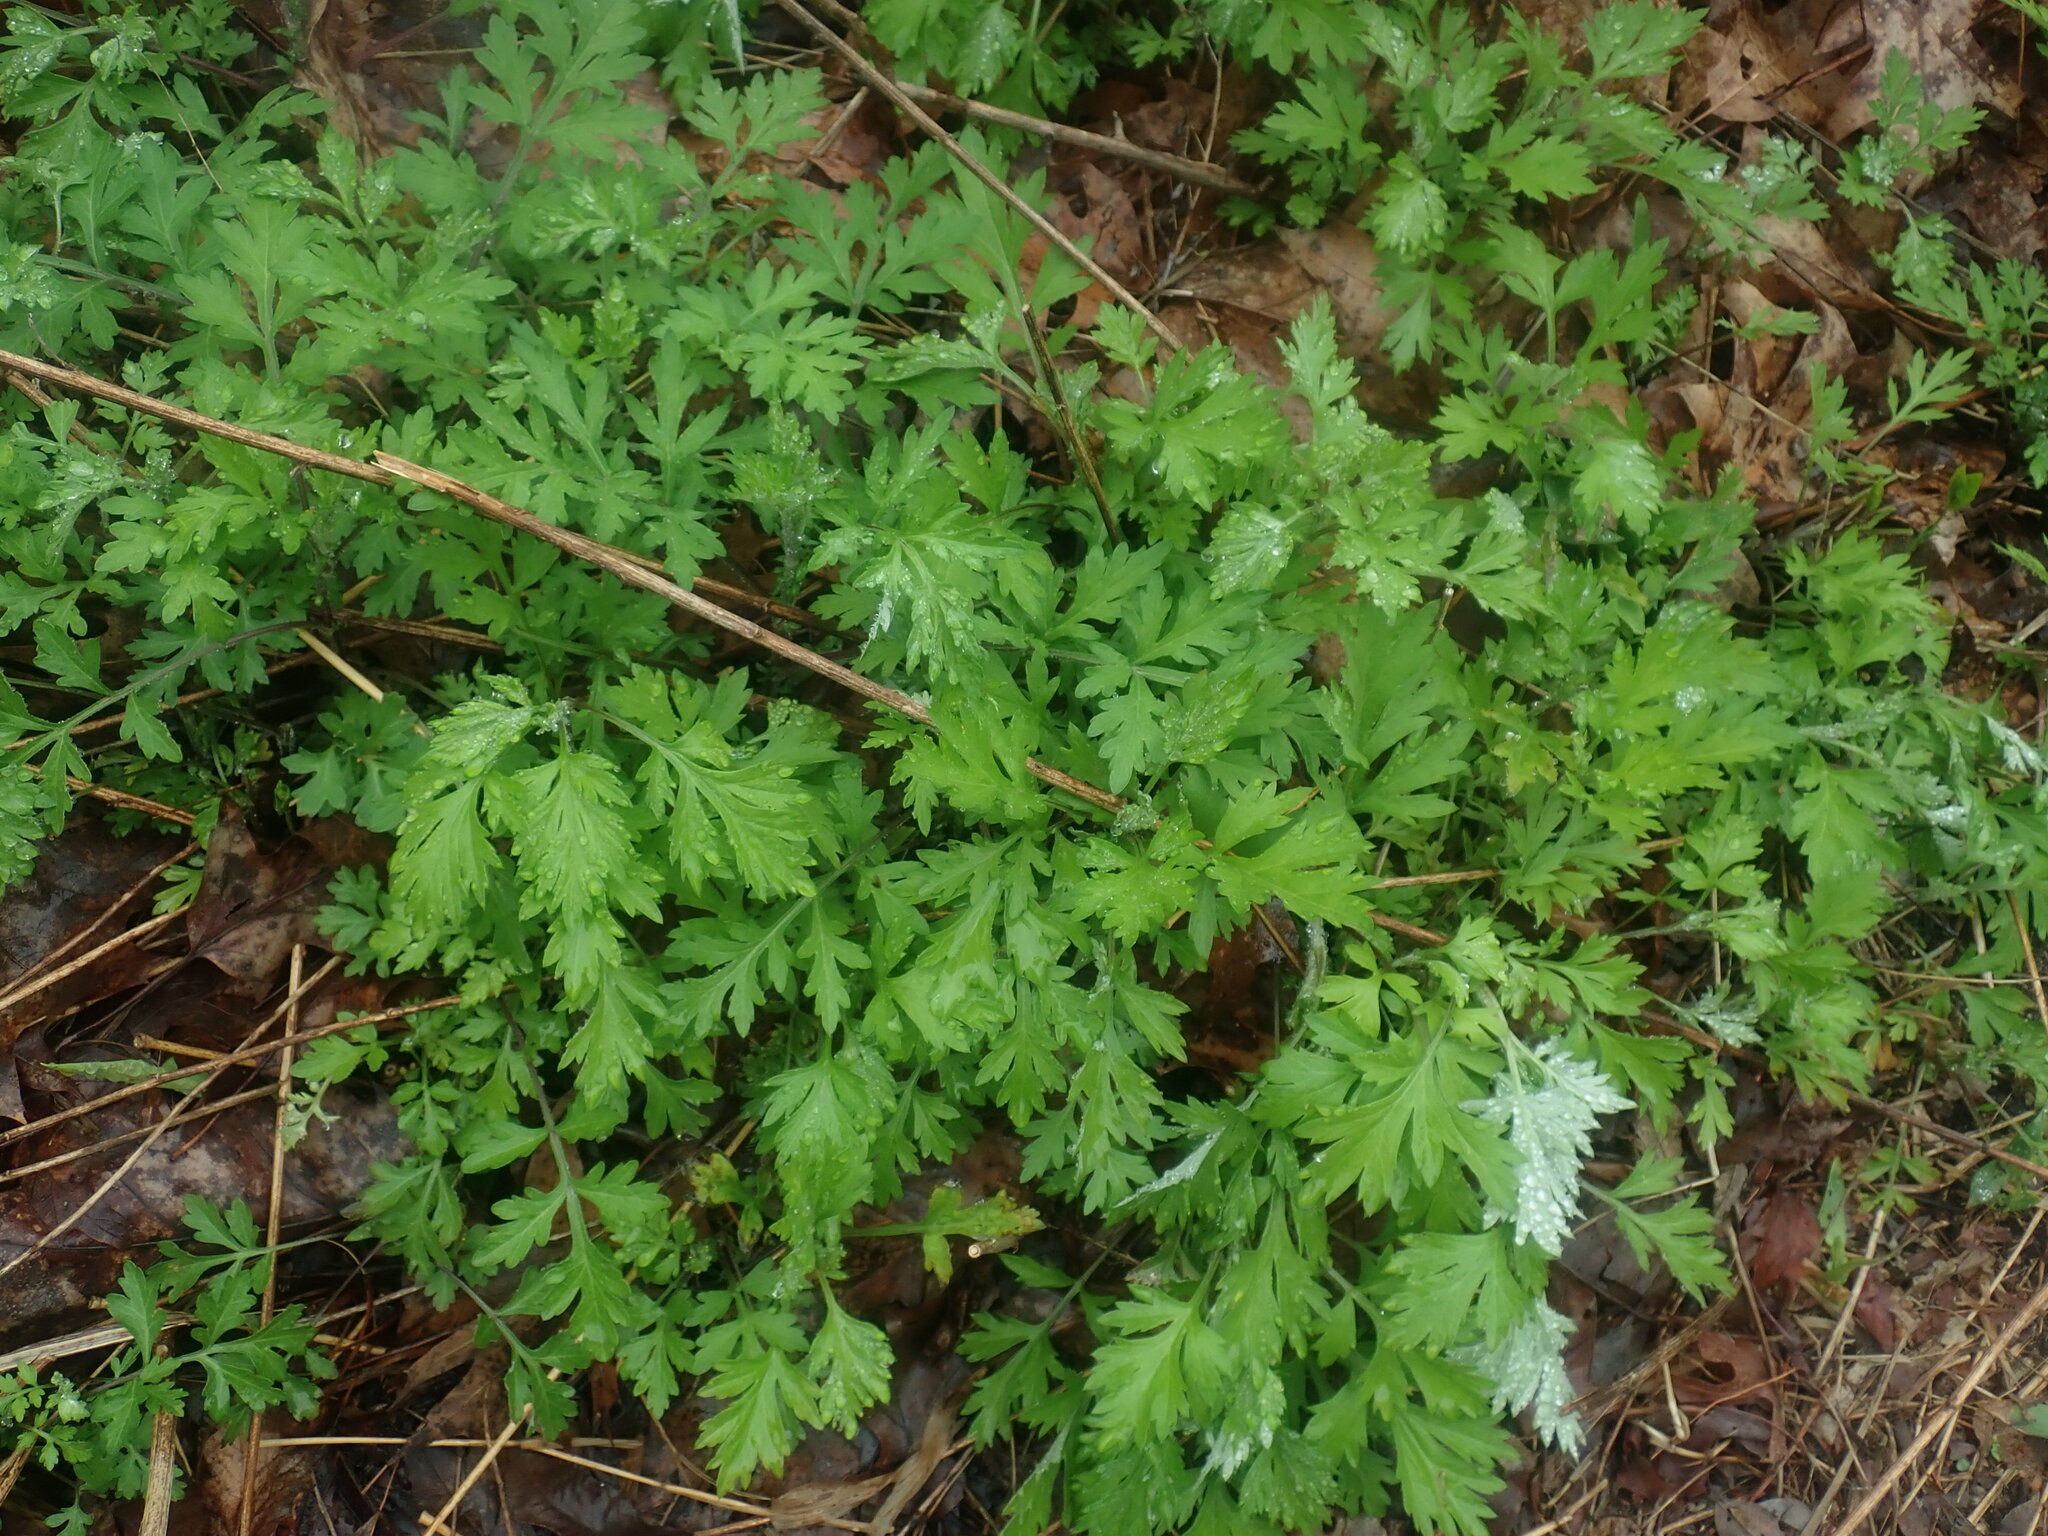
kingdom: Plantae
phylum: Tracheophyta
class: Magnoliopsida
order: Asterales
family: Asteraceae
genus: Artemisia
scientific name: Artemisia vulgaris
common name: Mugwort
